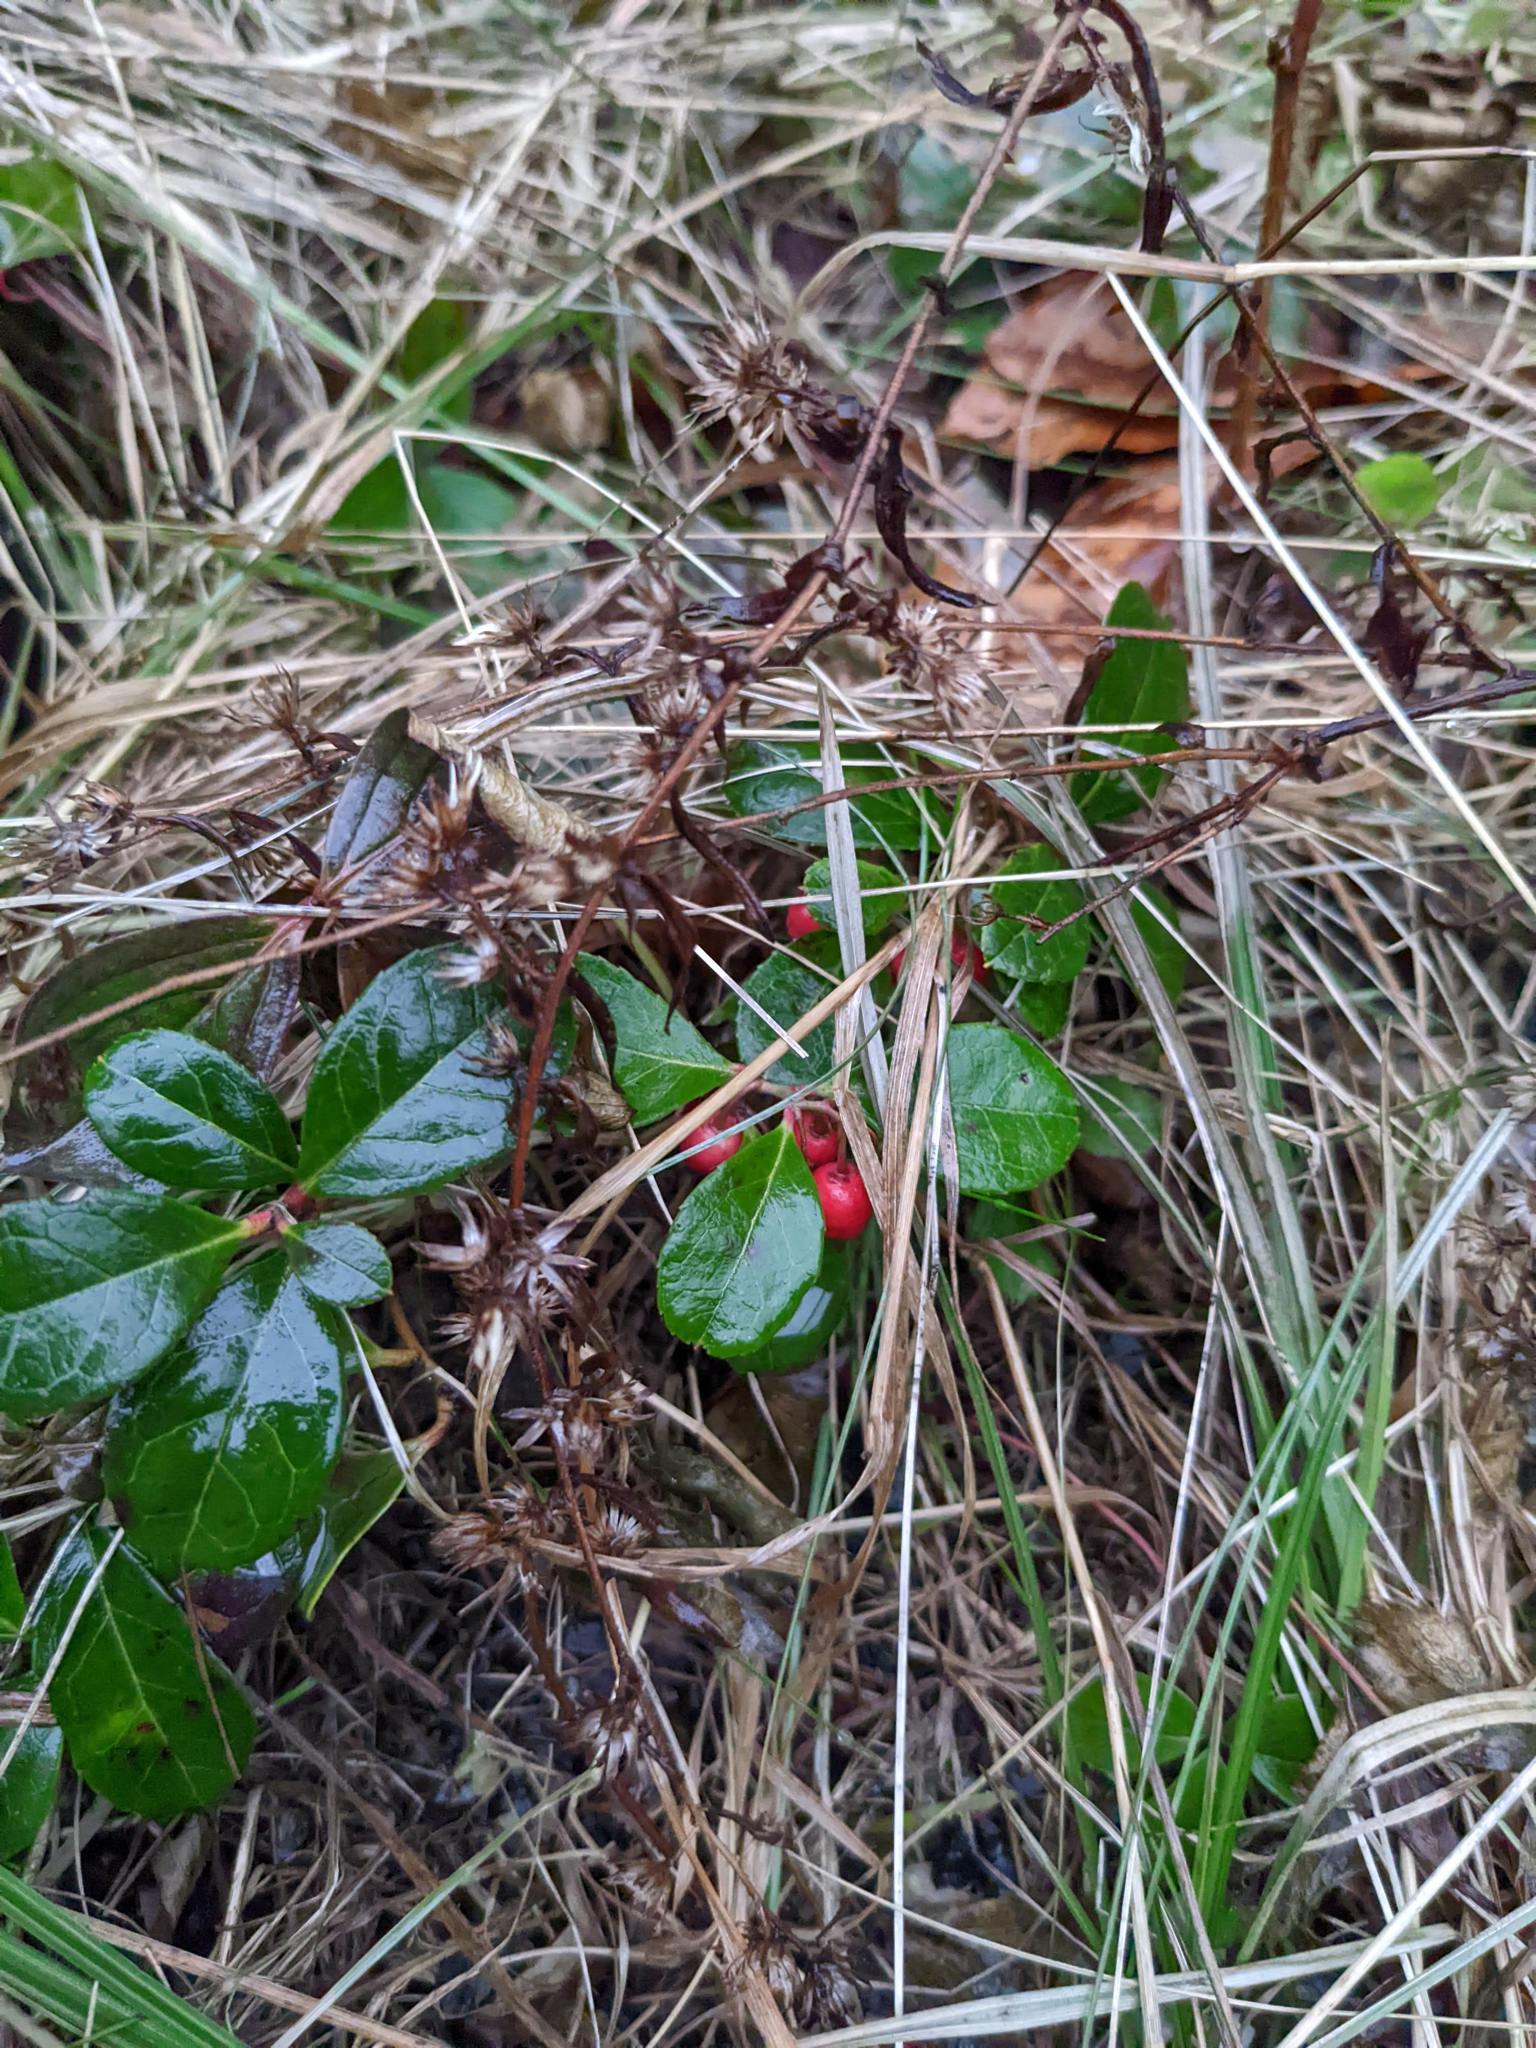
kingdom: Plantae
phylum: Tracheophyta
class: Magnoliopsida
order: Ericales
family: Ericaceae
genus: Gaultheria
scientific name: Gaultheria procumbens
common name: Checkerberry
